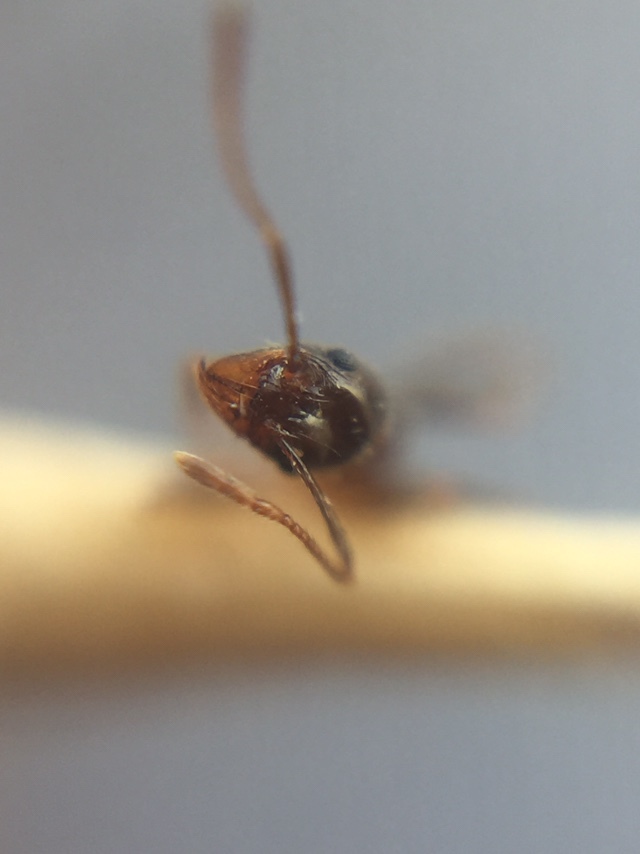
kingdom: Animalia
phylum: Arthropoda
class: Insecta
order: Hymenoptera
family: Formicidae
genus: Pheidole
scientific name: Pheidole indica
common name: Big-headed ant
